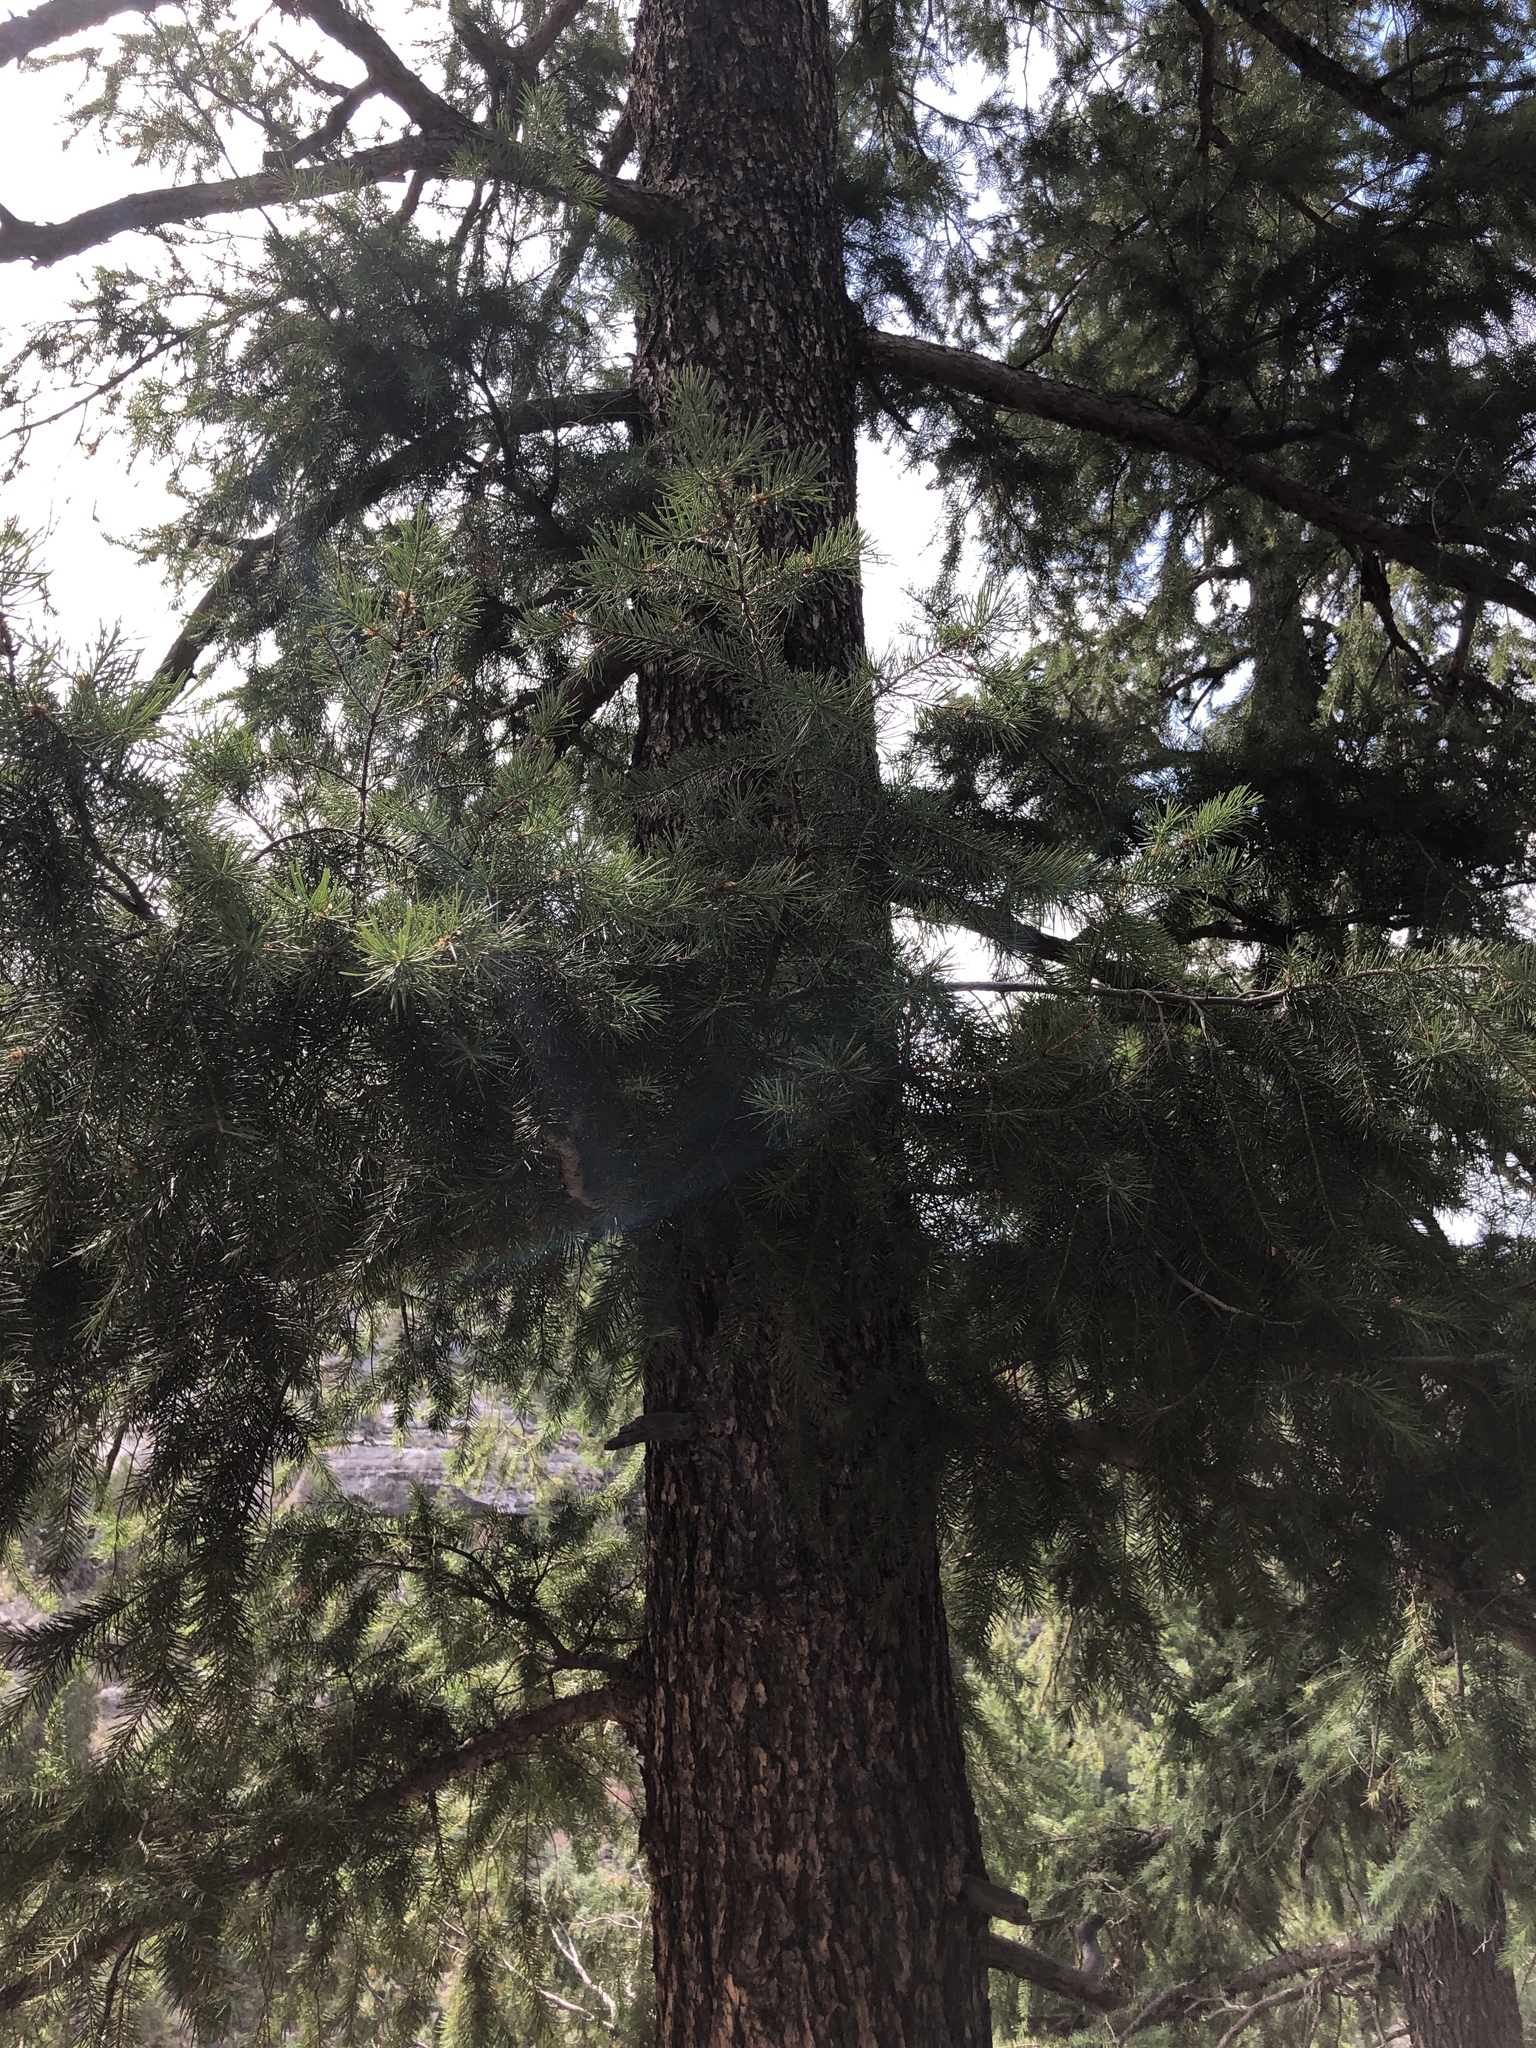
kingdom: Plantae
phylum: Tracheophyta
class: Pinopsida
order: Pinales
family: Pinaceae
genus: Pseudotsuga
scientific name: Pseudotsuga menziesii
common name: Douglas fir
